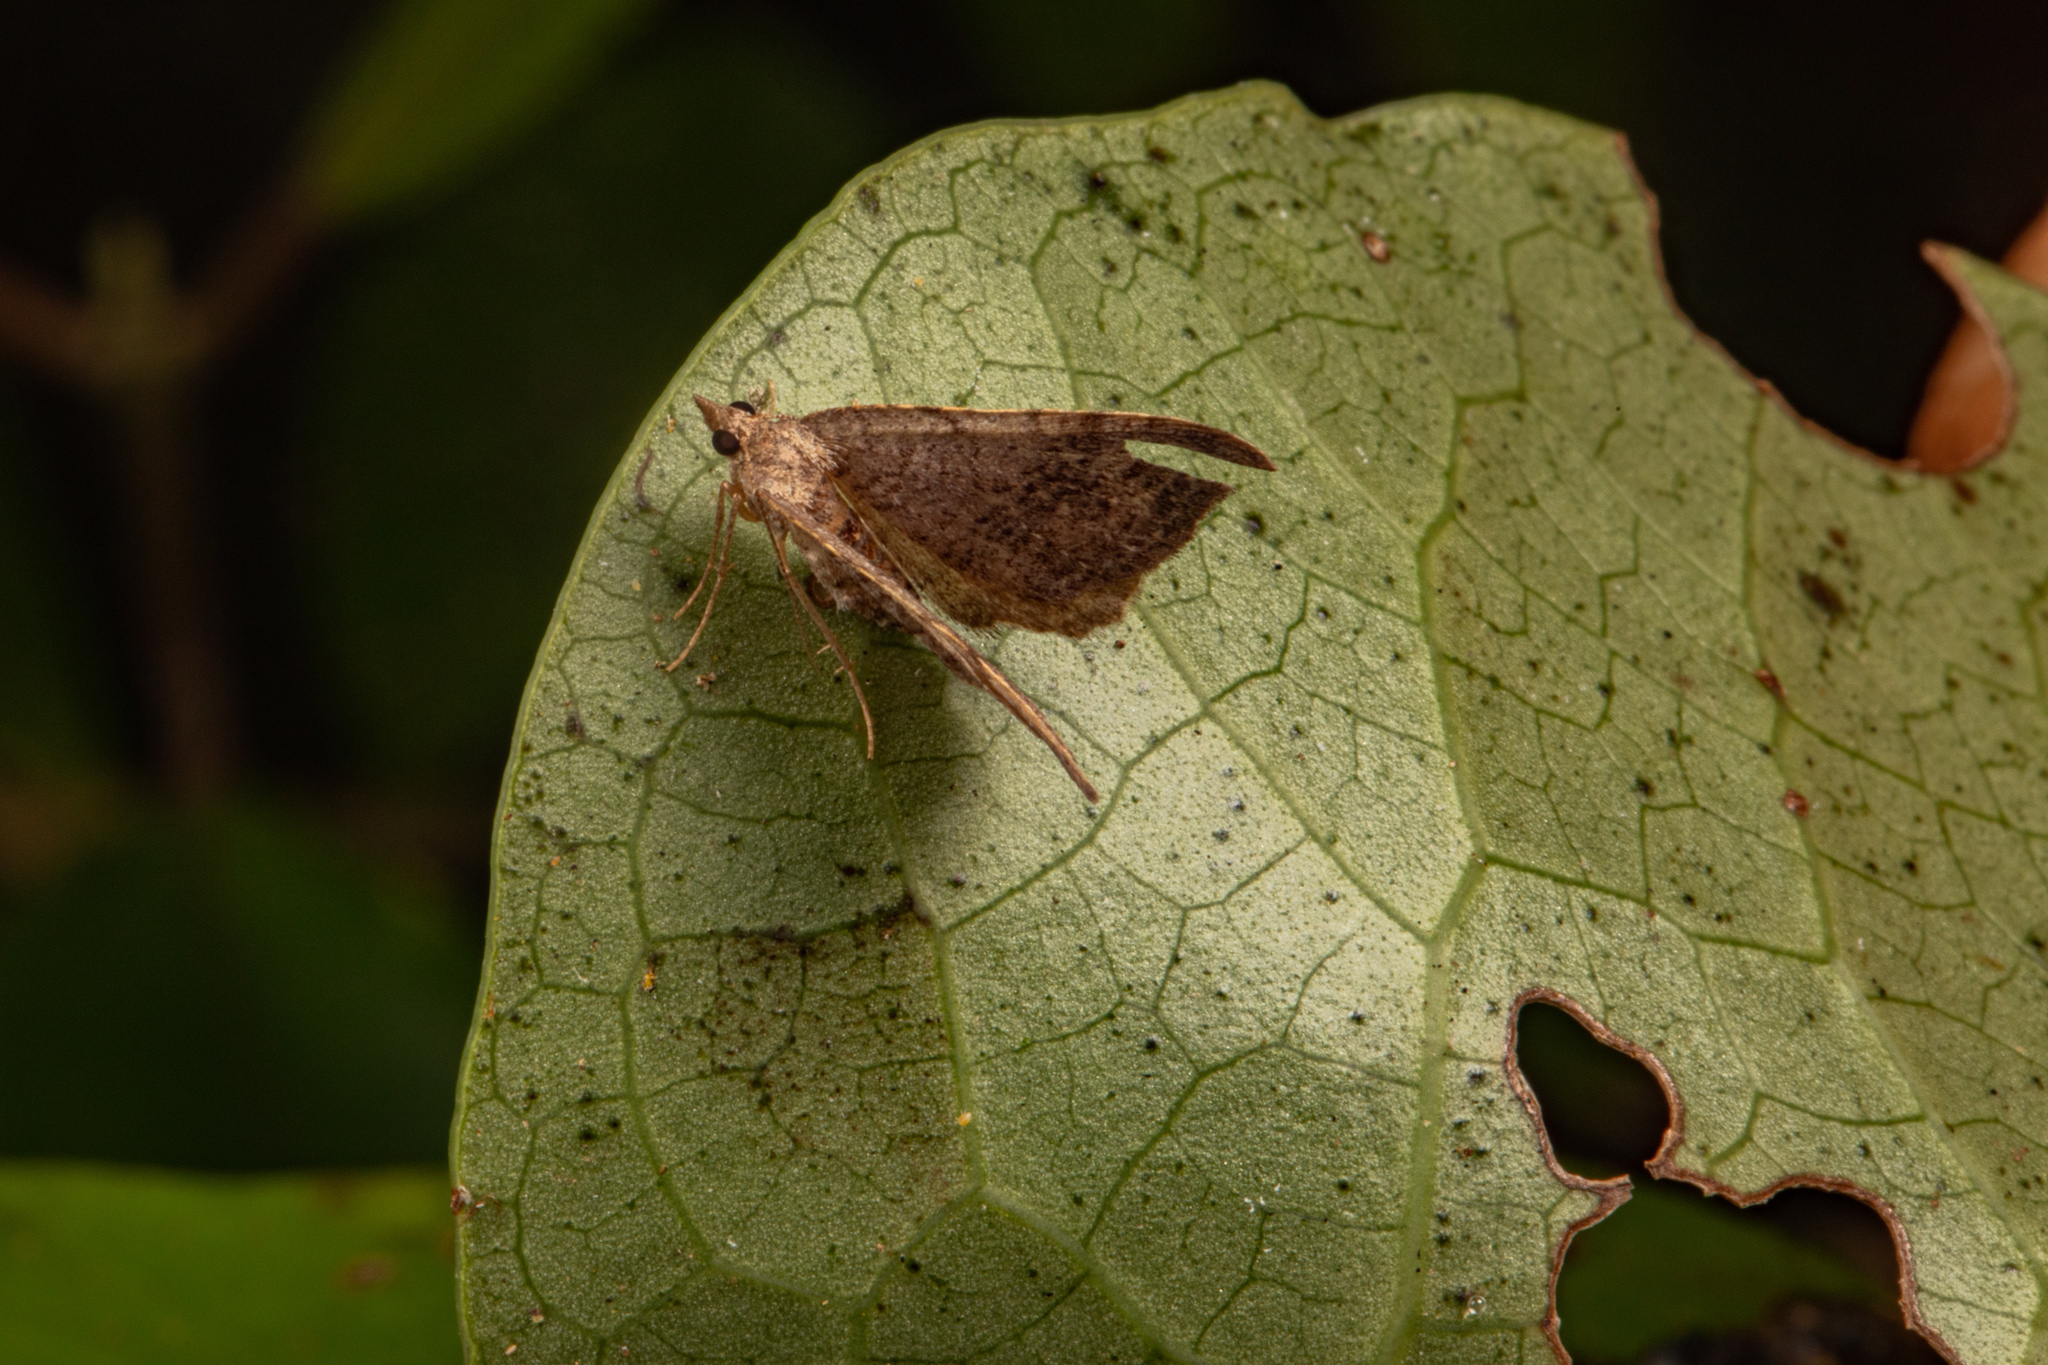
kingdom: Animalia
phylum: Arthropoda
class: Insecta
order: Lepidoptera
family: Geometridae
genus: Epyaxa
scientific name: Epyaxa rosearia
